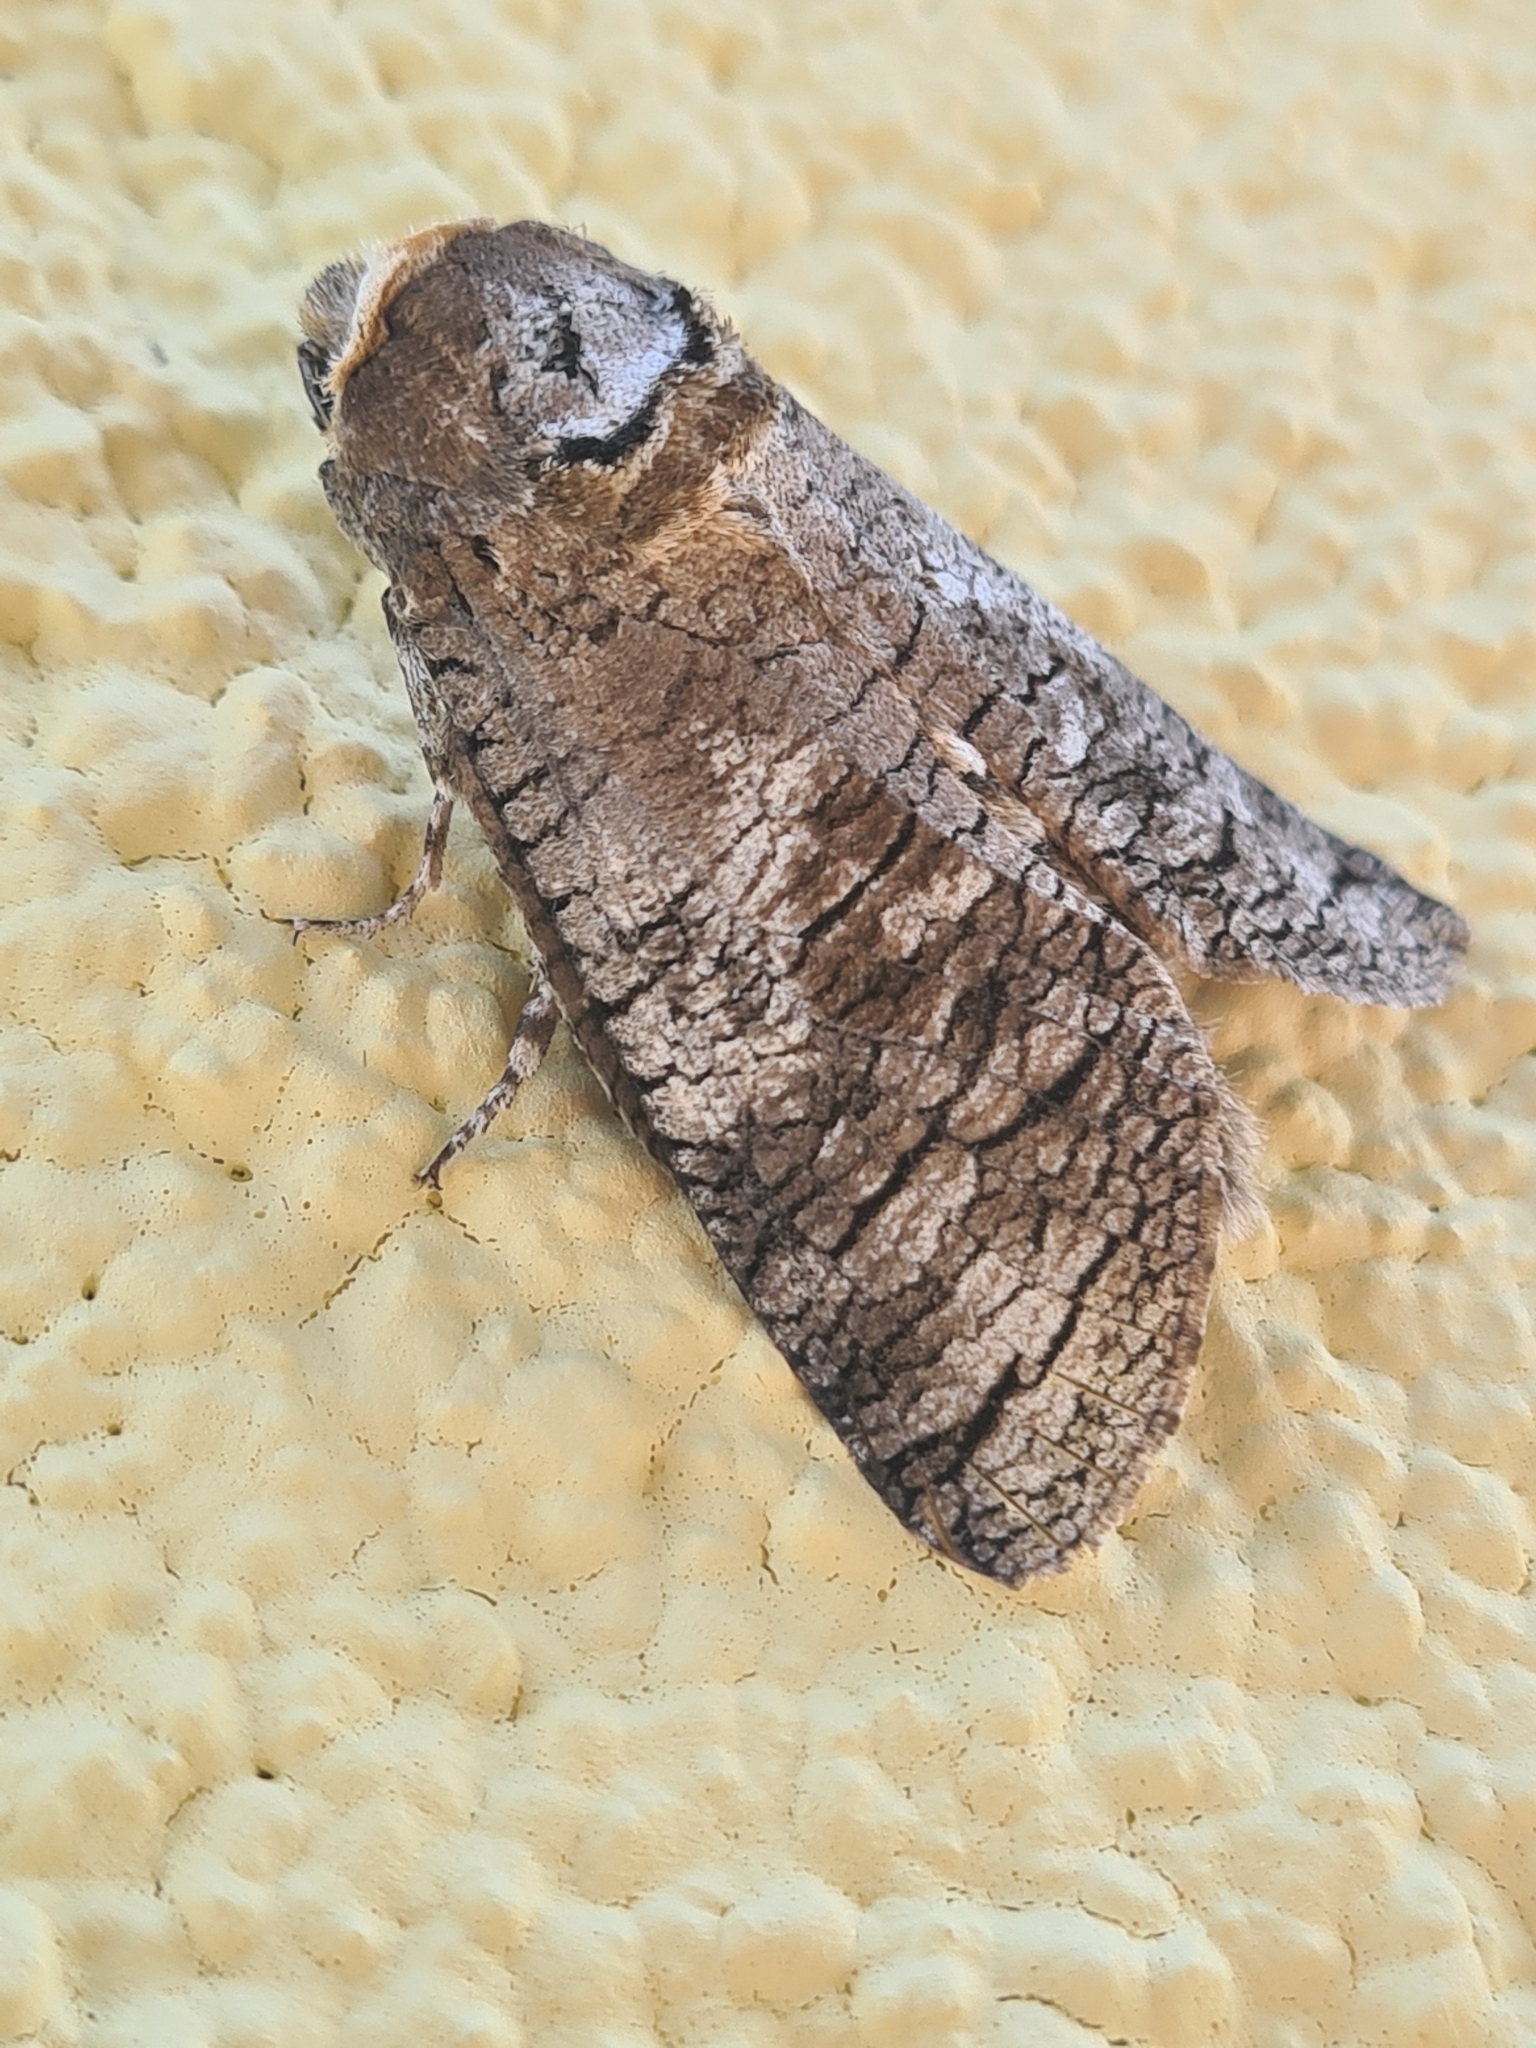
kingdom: Animalia
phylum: Arthropoda
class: Insecta
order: Lepidoptera
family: Cossidae
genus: Cossus
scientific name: Cossus cossus
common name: Goat moth
